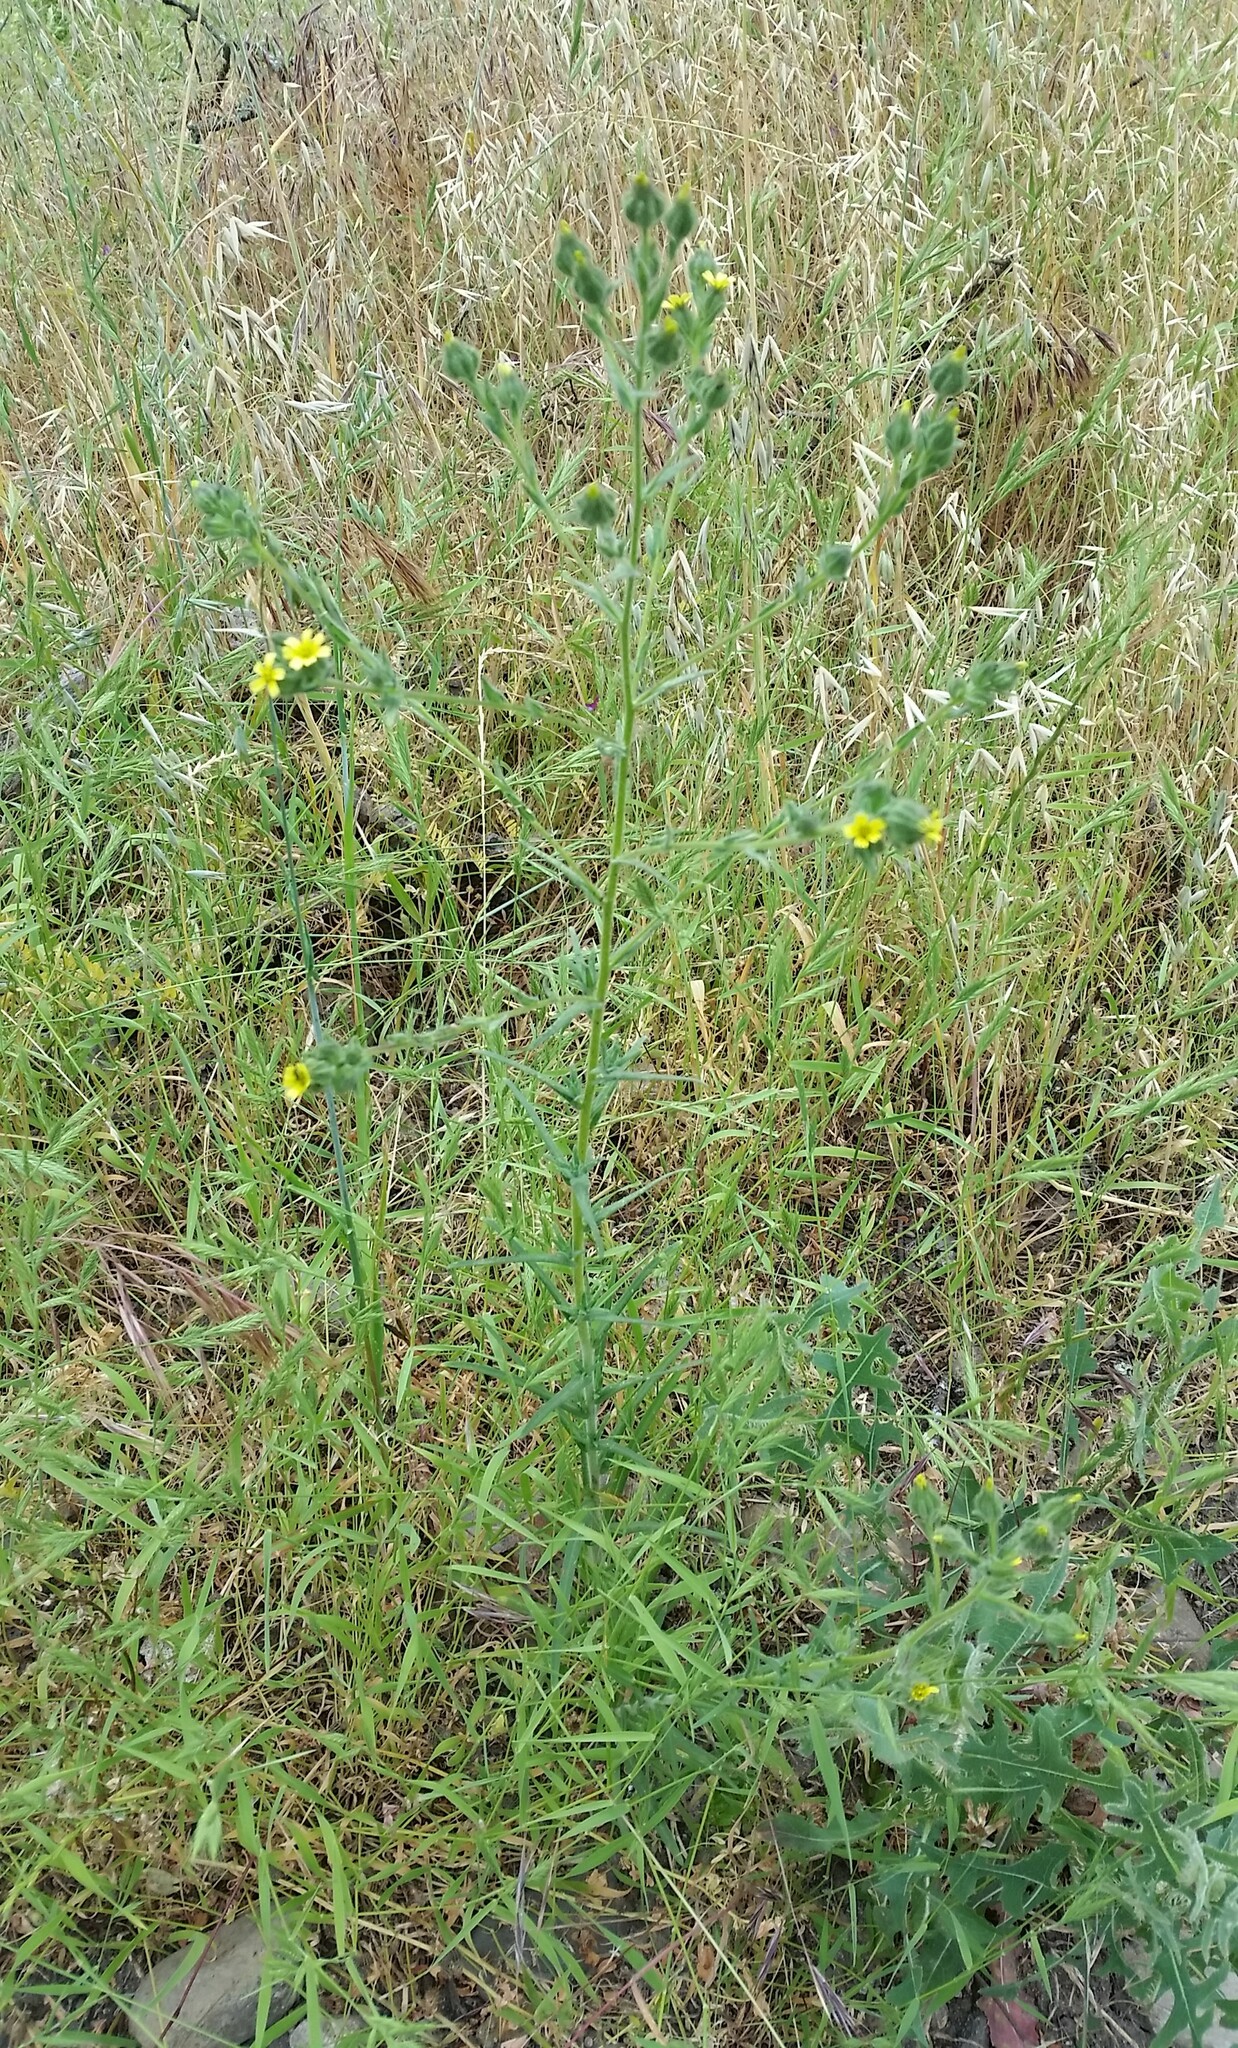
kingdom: Plantae
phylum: Tracheophyta
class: Magnoliopsida
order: Asterales
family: Asteraceae
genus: Madia
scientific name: Madia gracilis
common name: Grassy tarweed
